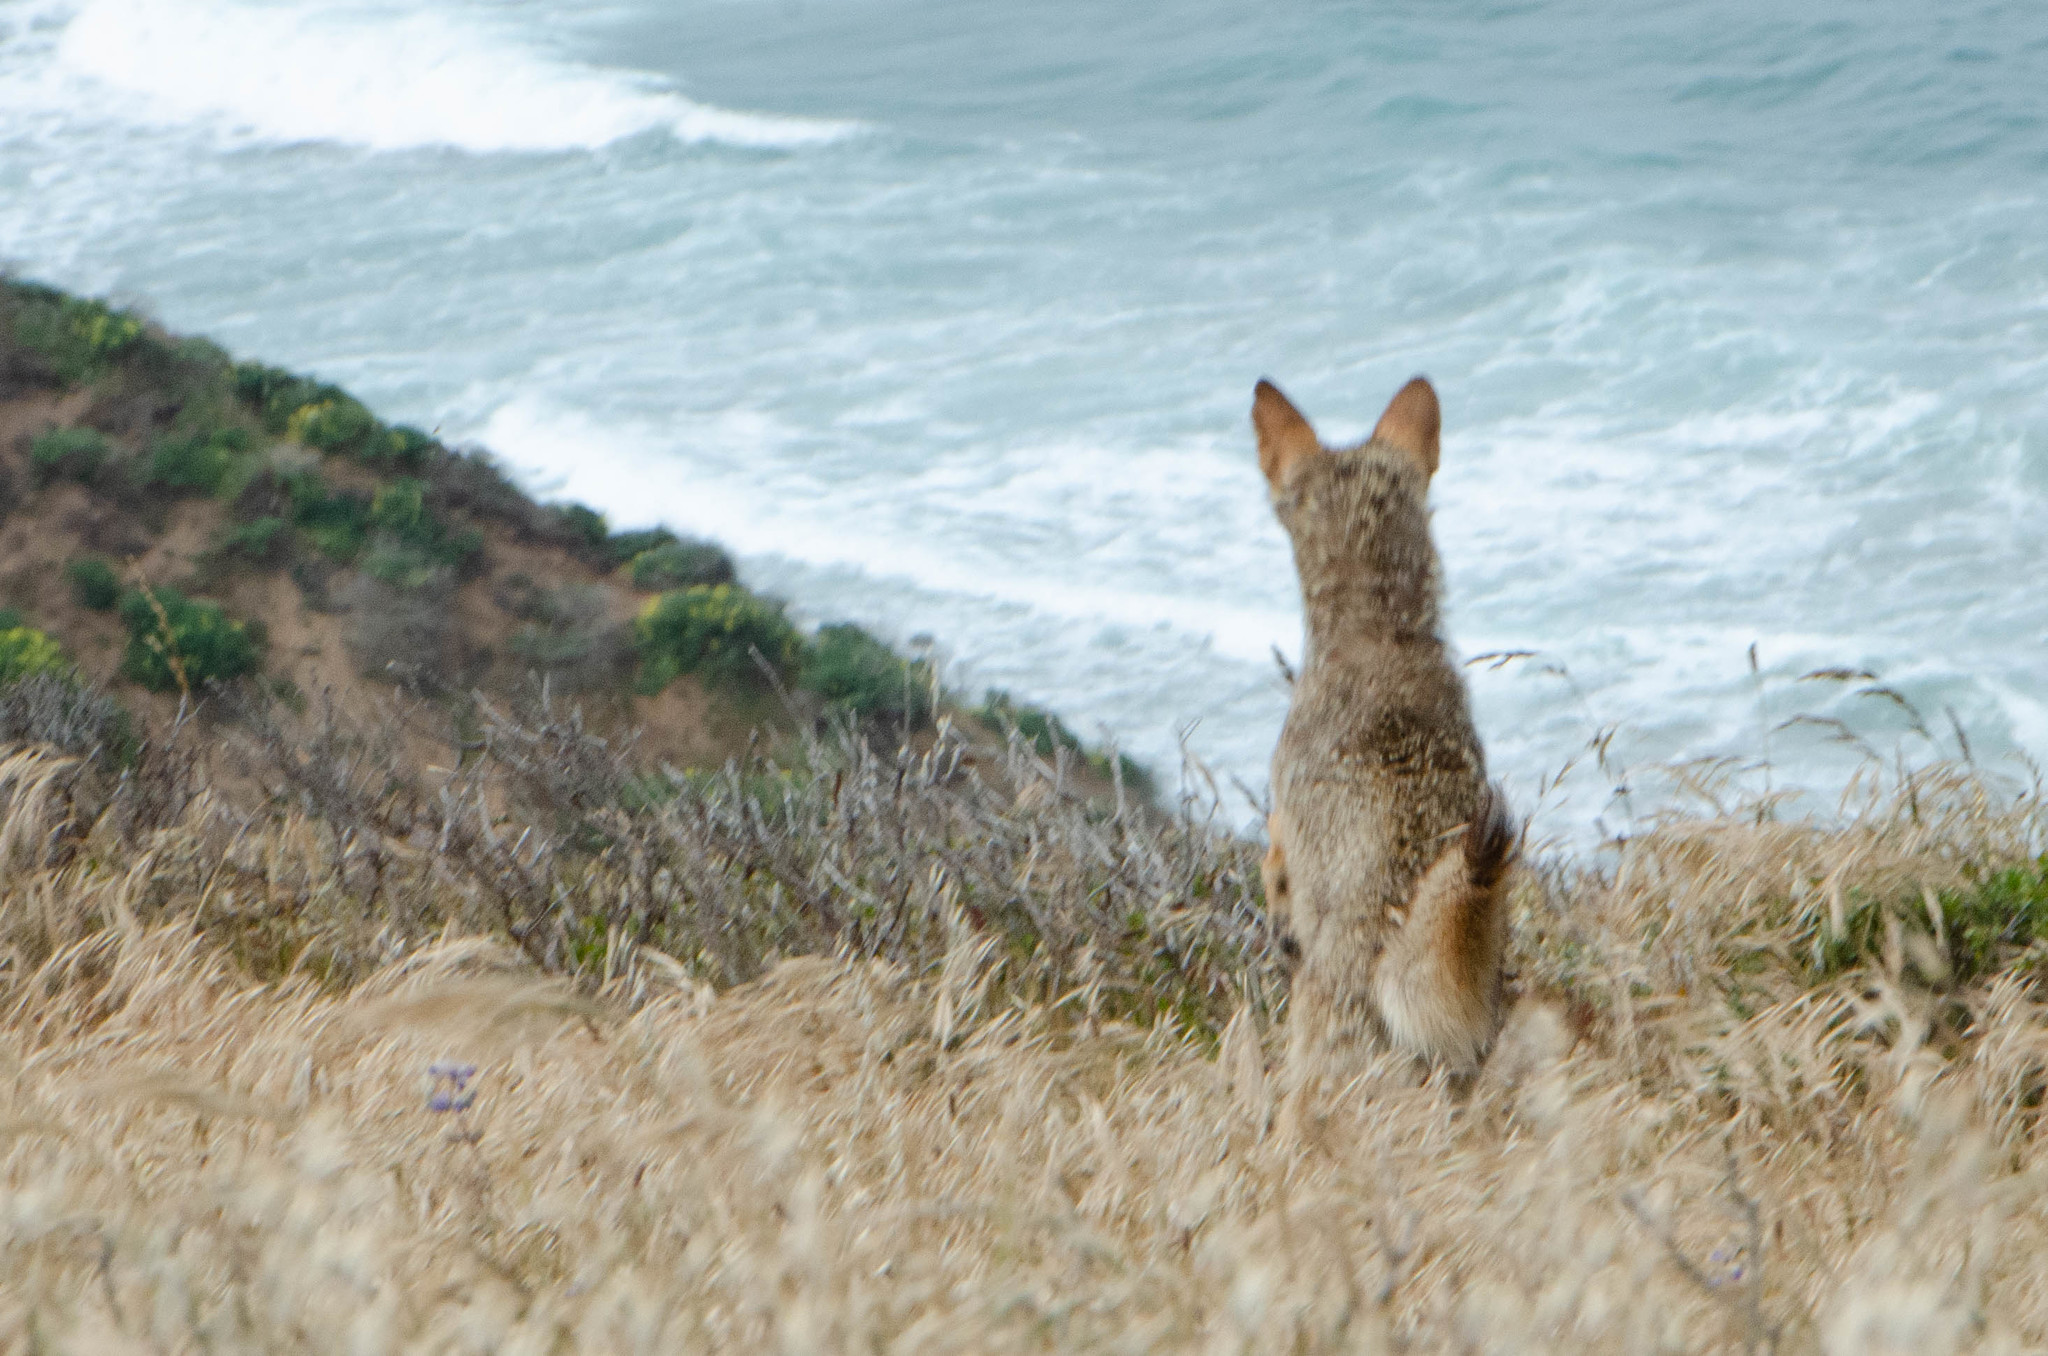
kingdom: Animalia
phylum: Chordata
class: Mammalia
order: Carnivora
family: Canidae
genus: Canis
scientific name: Canis latrans
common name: Coyote
